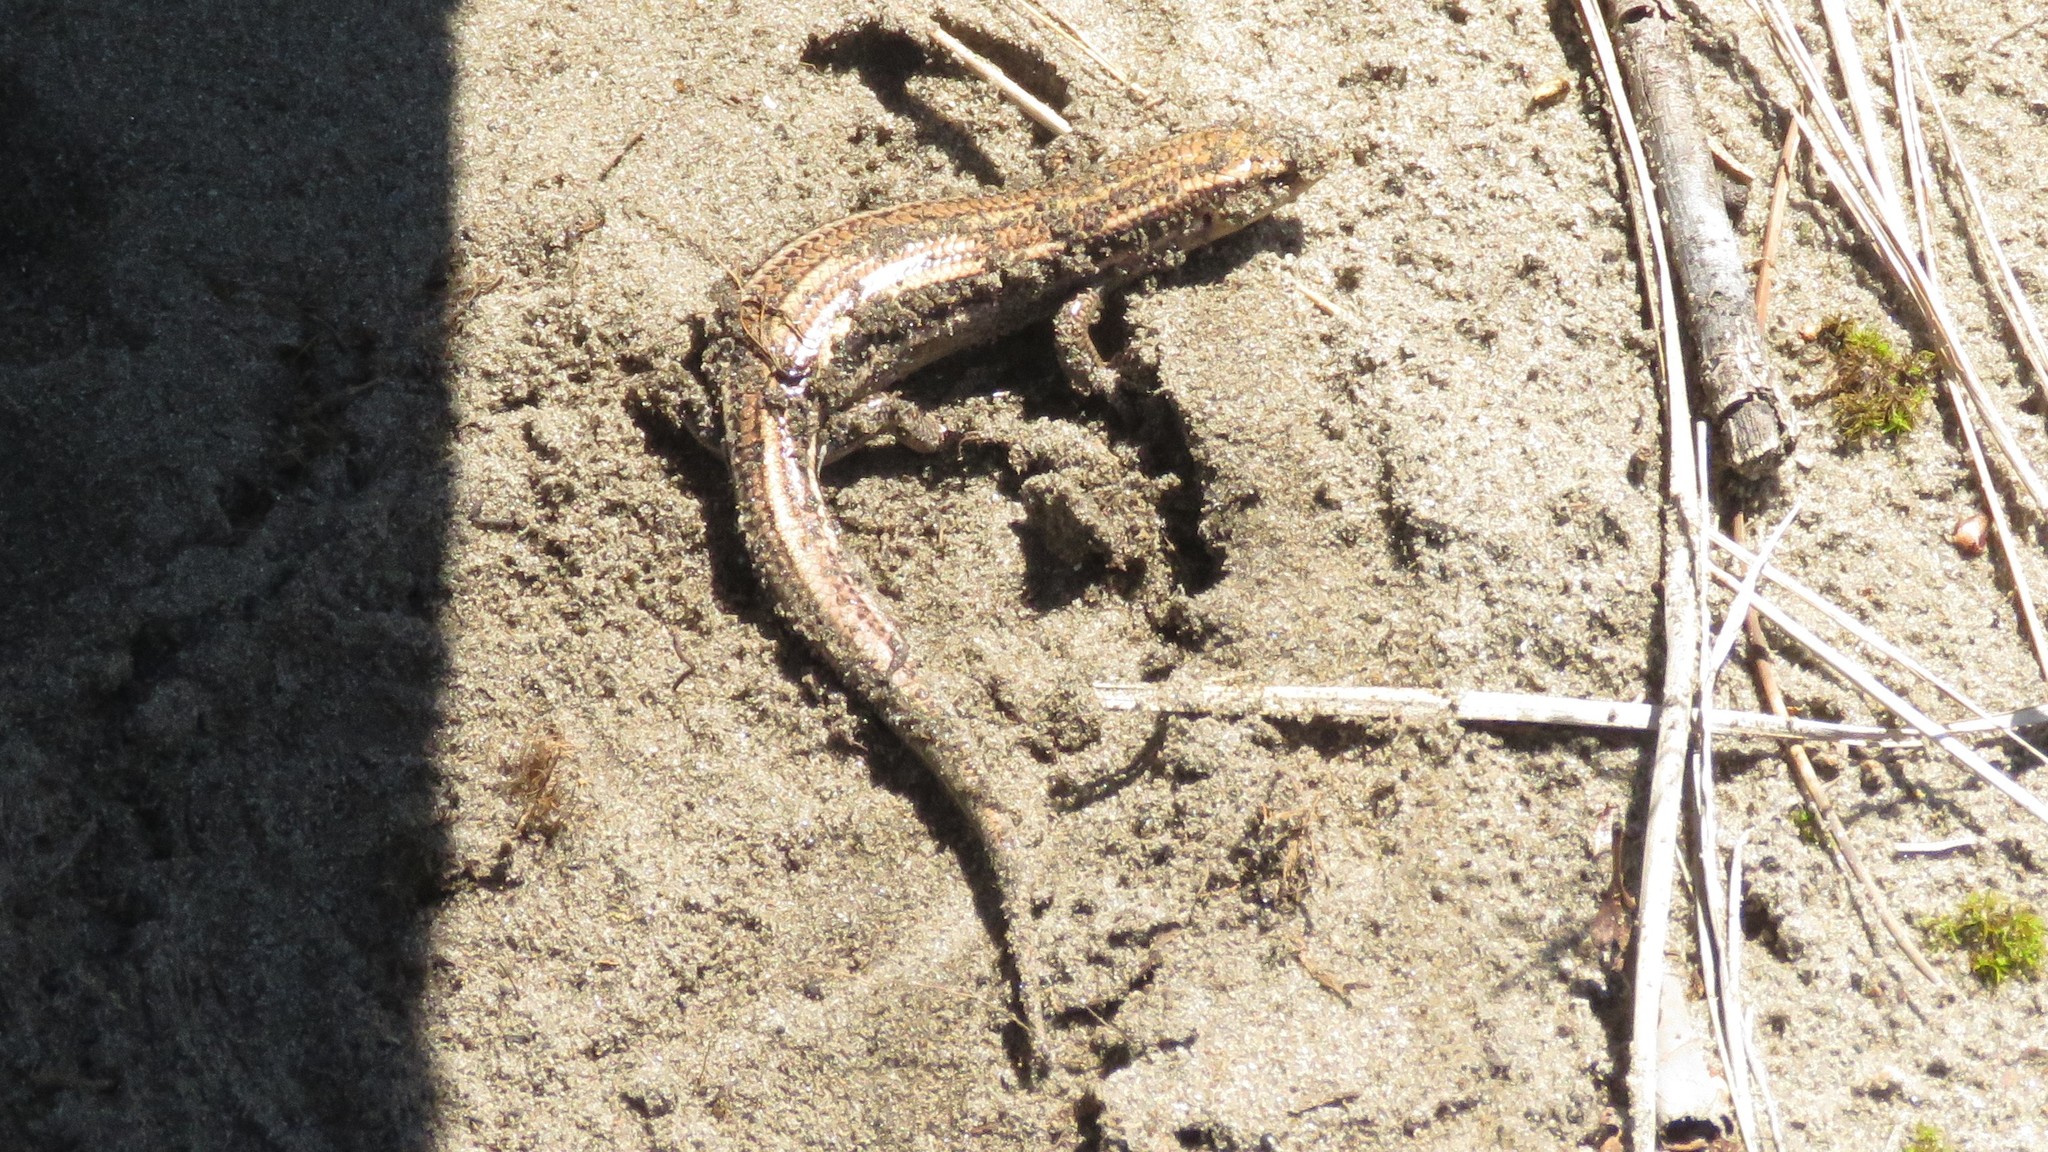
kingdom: Animalia
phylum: Chordata
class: Squamata
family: Scincidae
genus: Plestiodon
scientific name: Plestiodon fasciatus
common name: Five-lined skink
